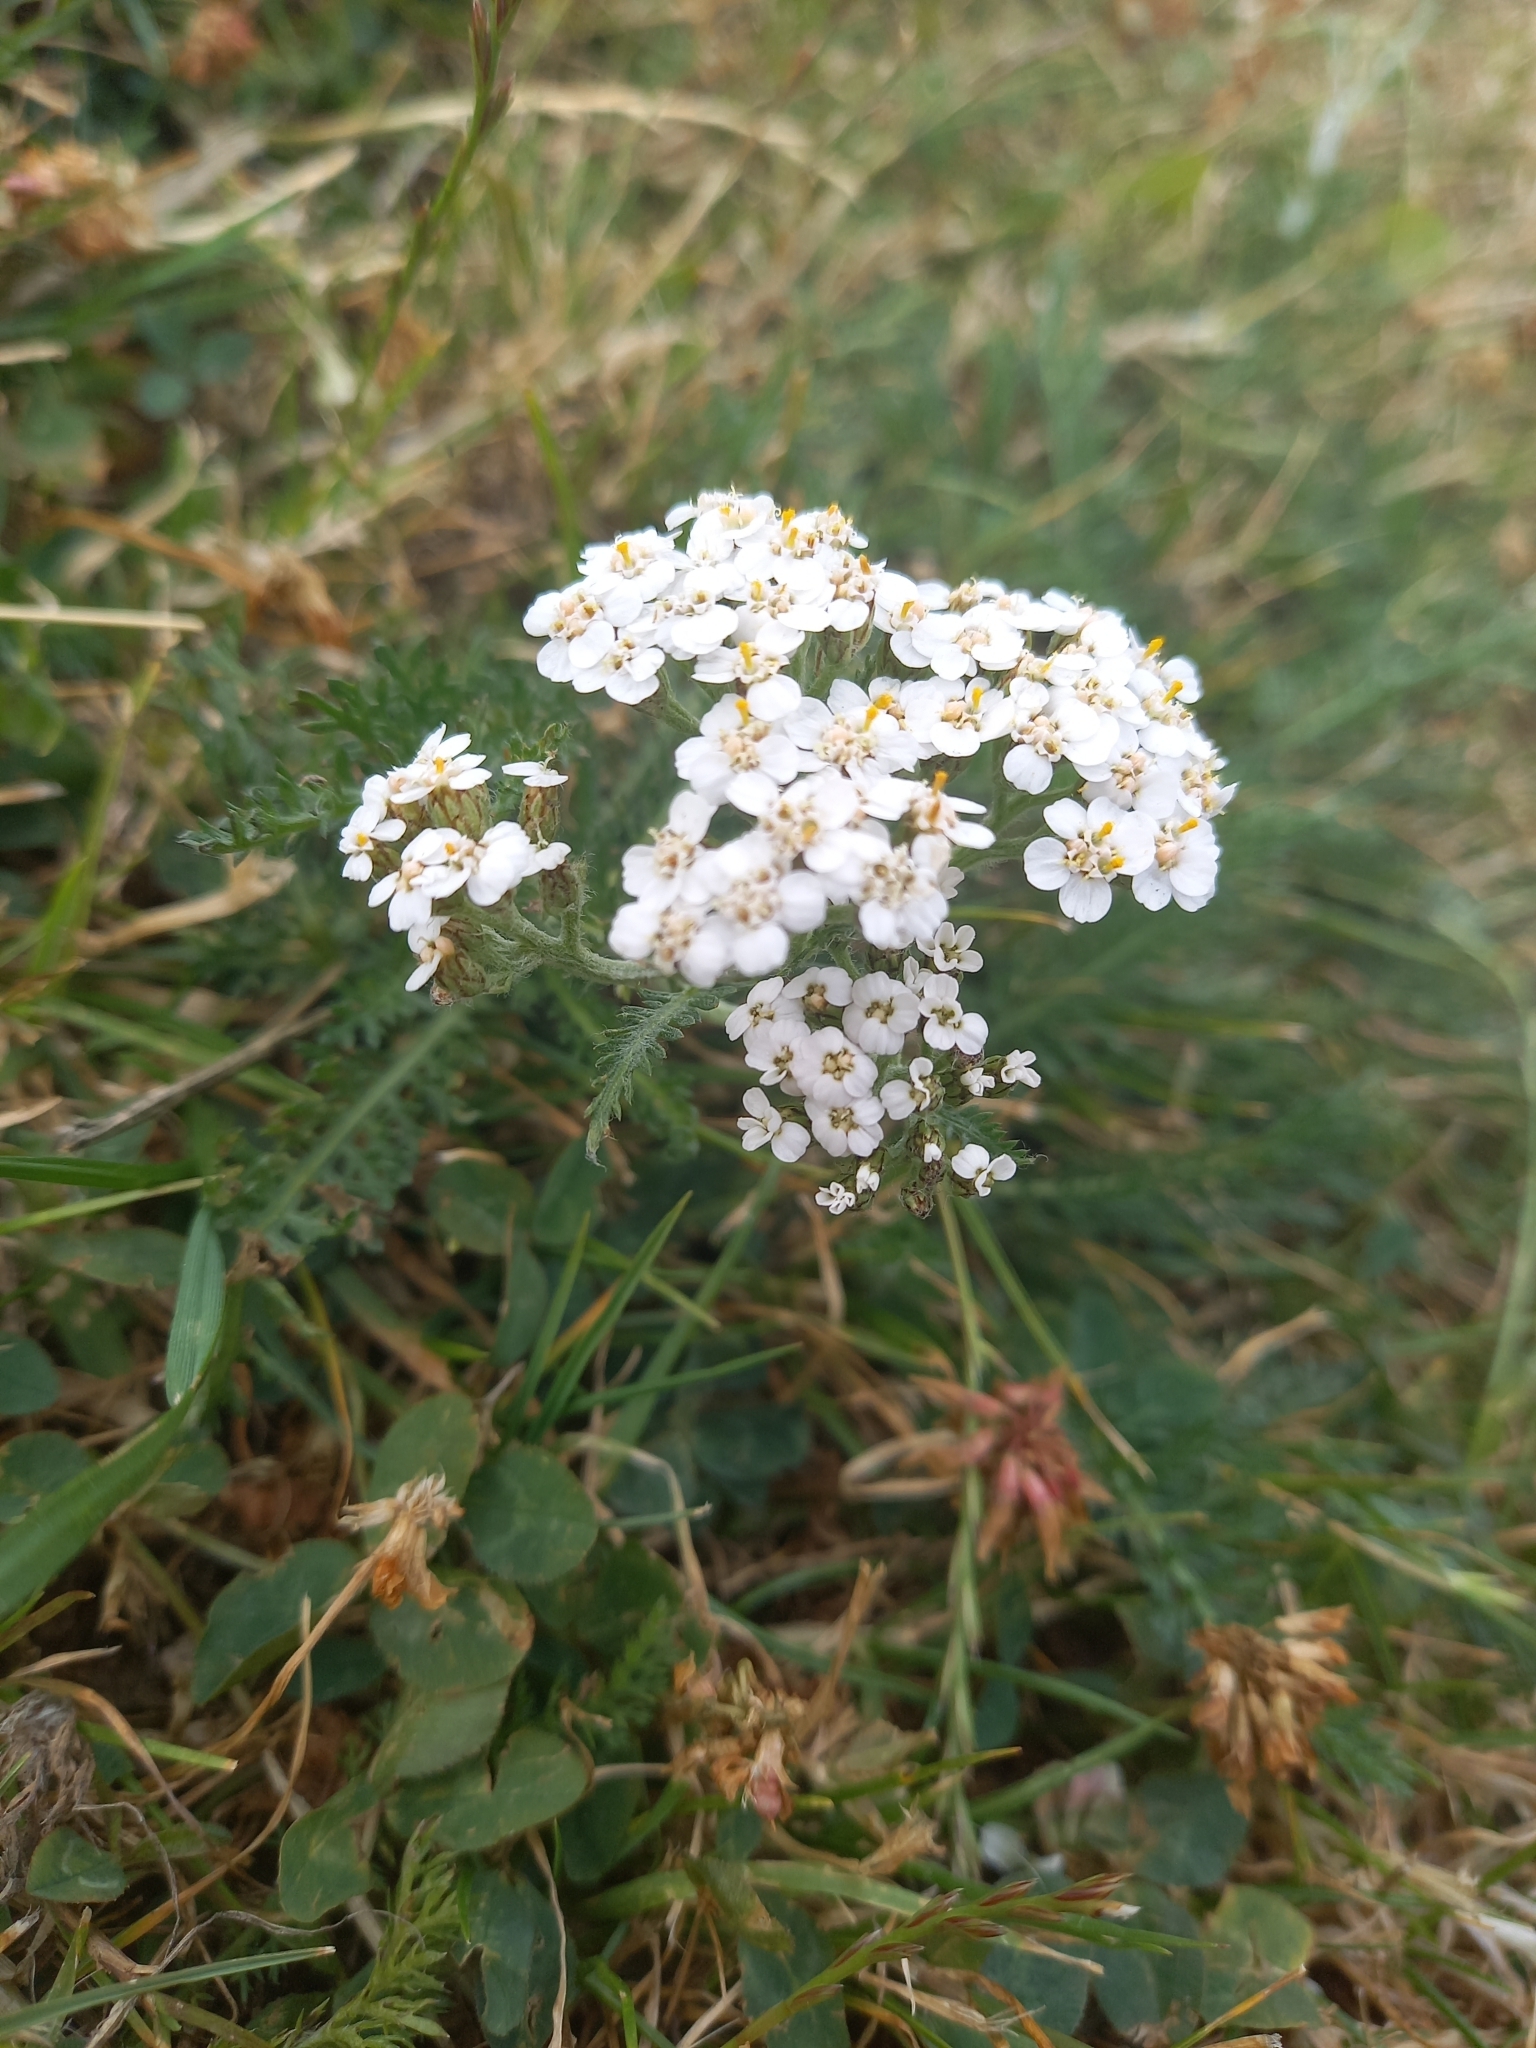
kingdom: Plantae
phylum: Tracheophyta
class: Magnoliopsida
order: Asterales
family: Asteraceae
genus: Achillea
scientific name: Achillea millefolium
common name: Yarrow
